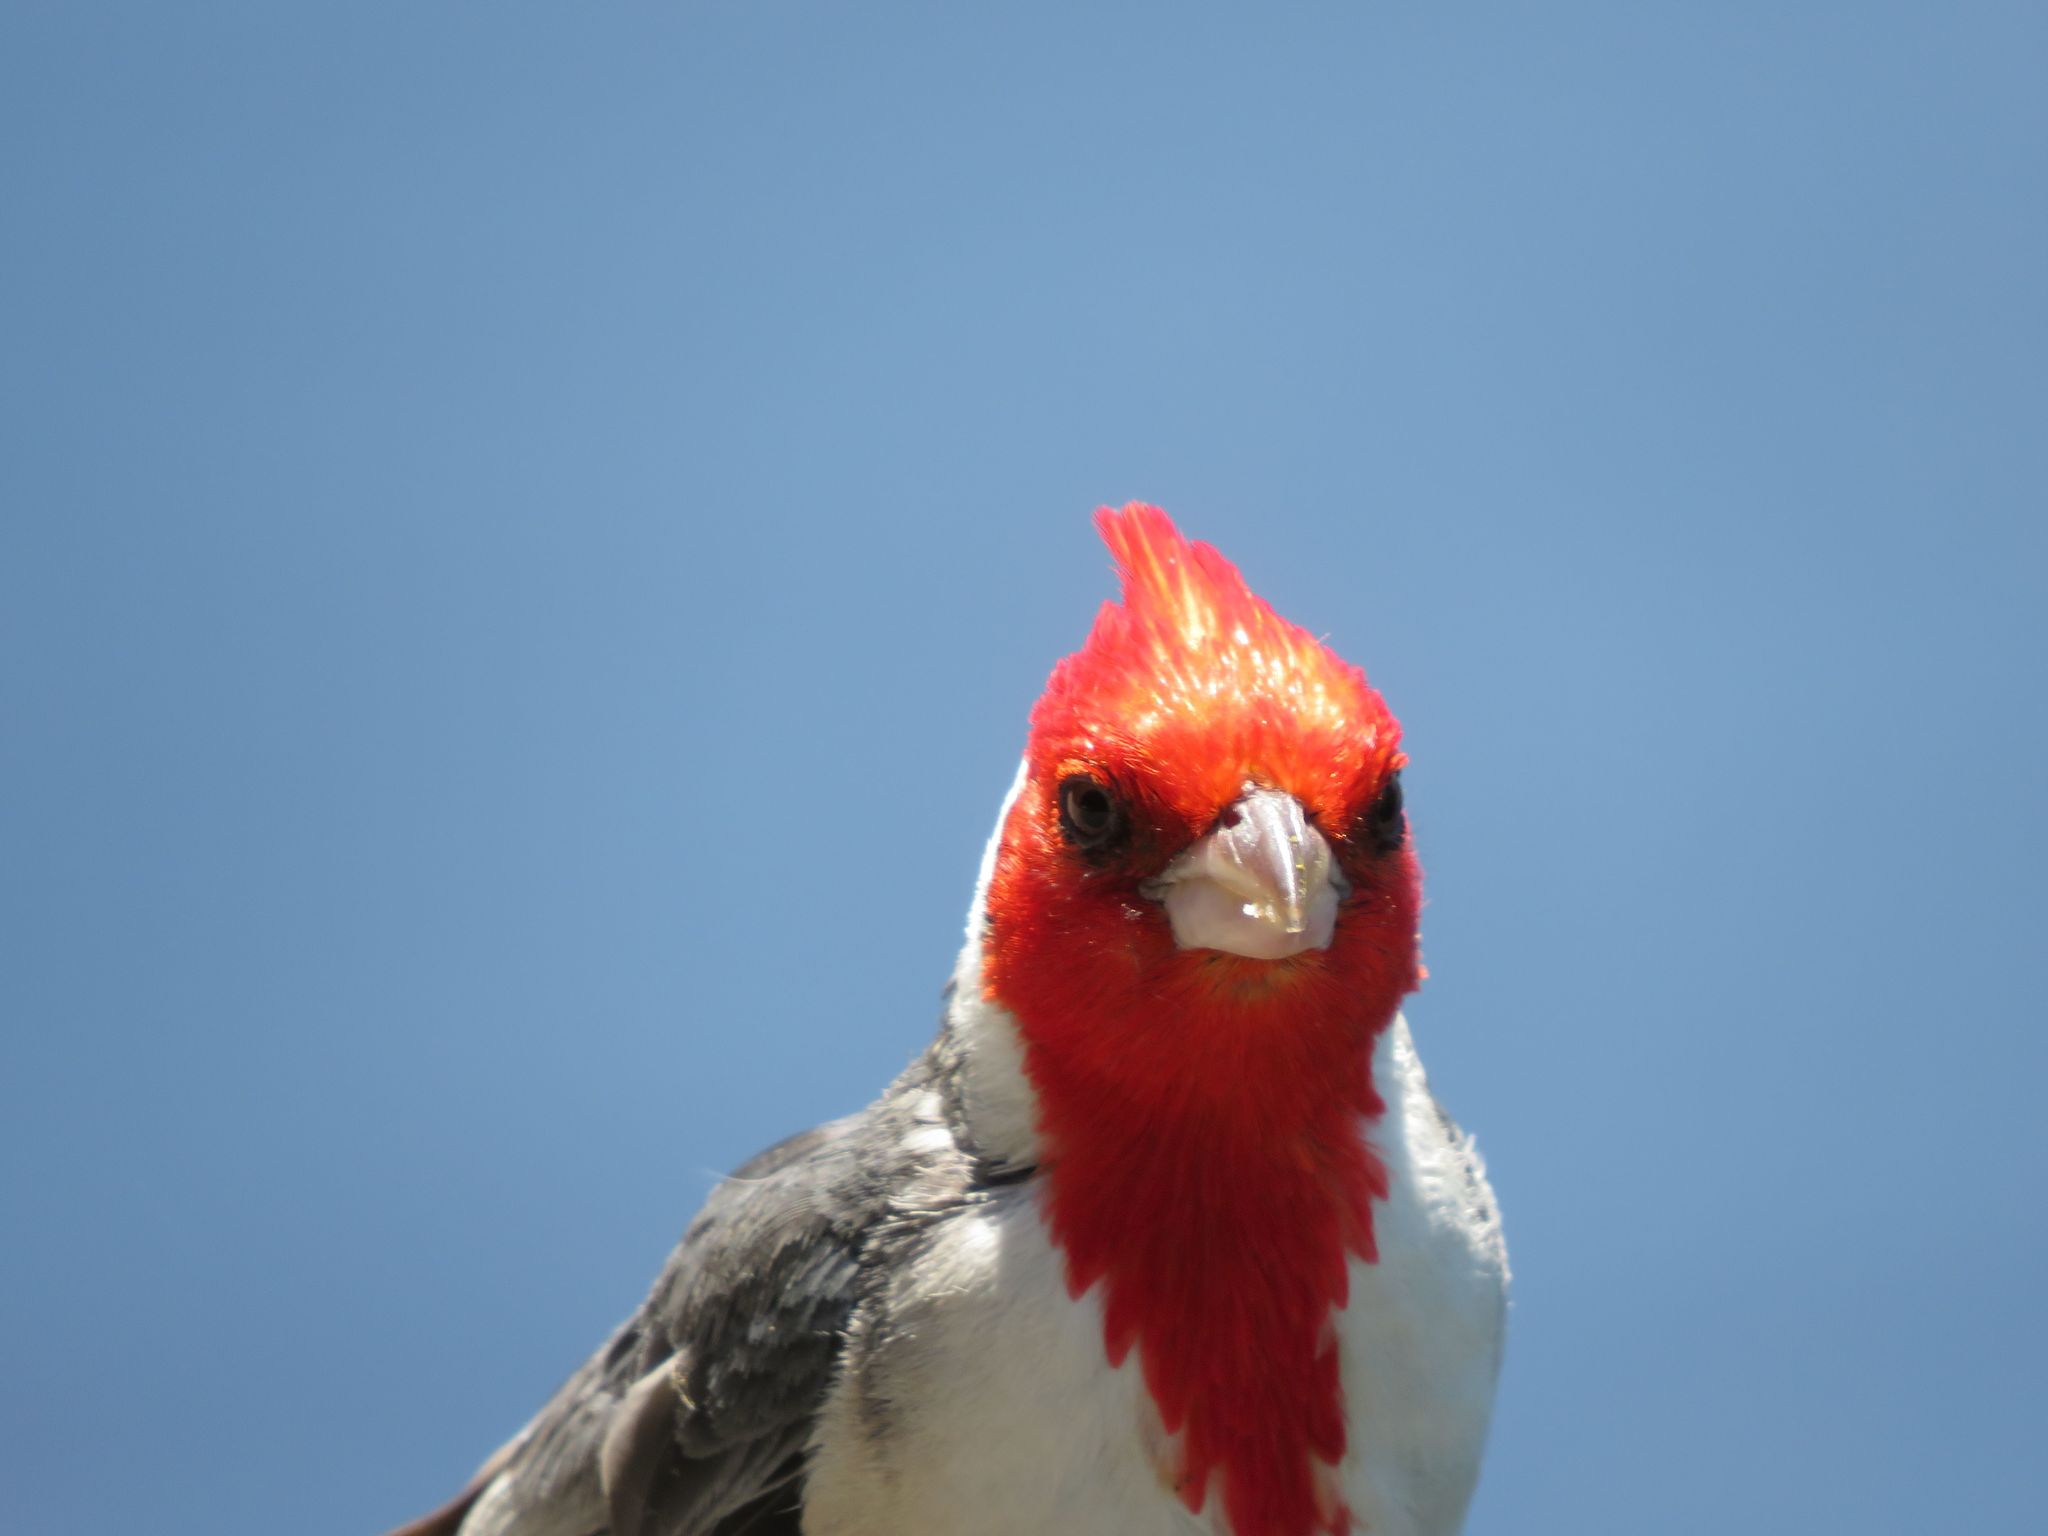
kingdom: Animalia
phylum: Chordata
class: Aves
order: Passeriformes
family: Thraupidae
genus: Paroaria
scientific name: Paroaria coronata
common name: Red-crested cardinal
